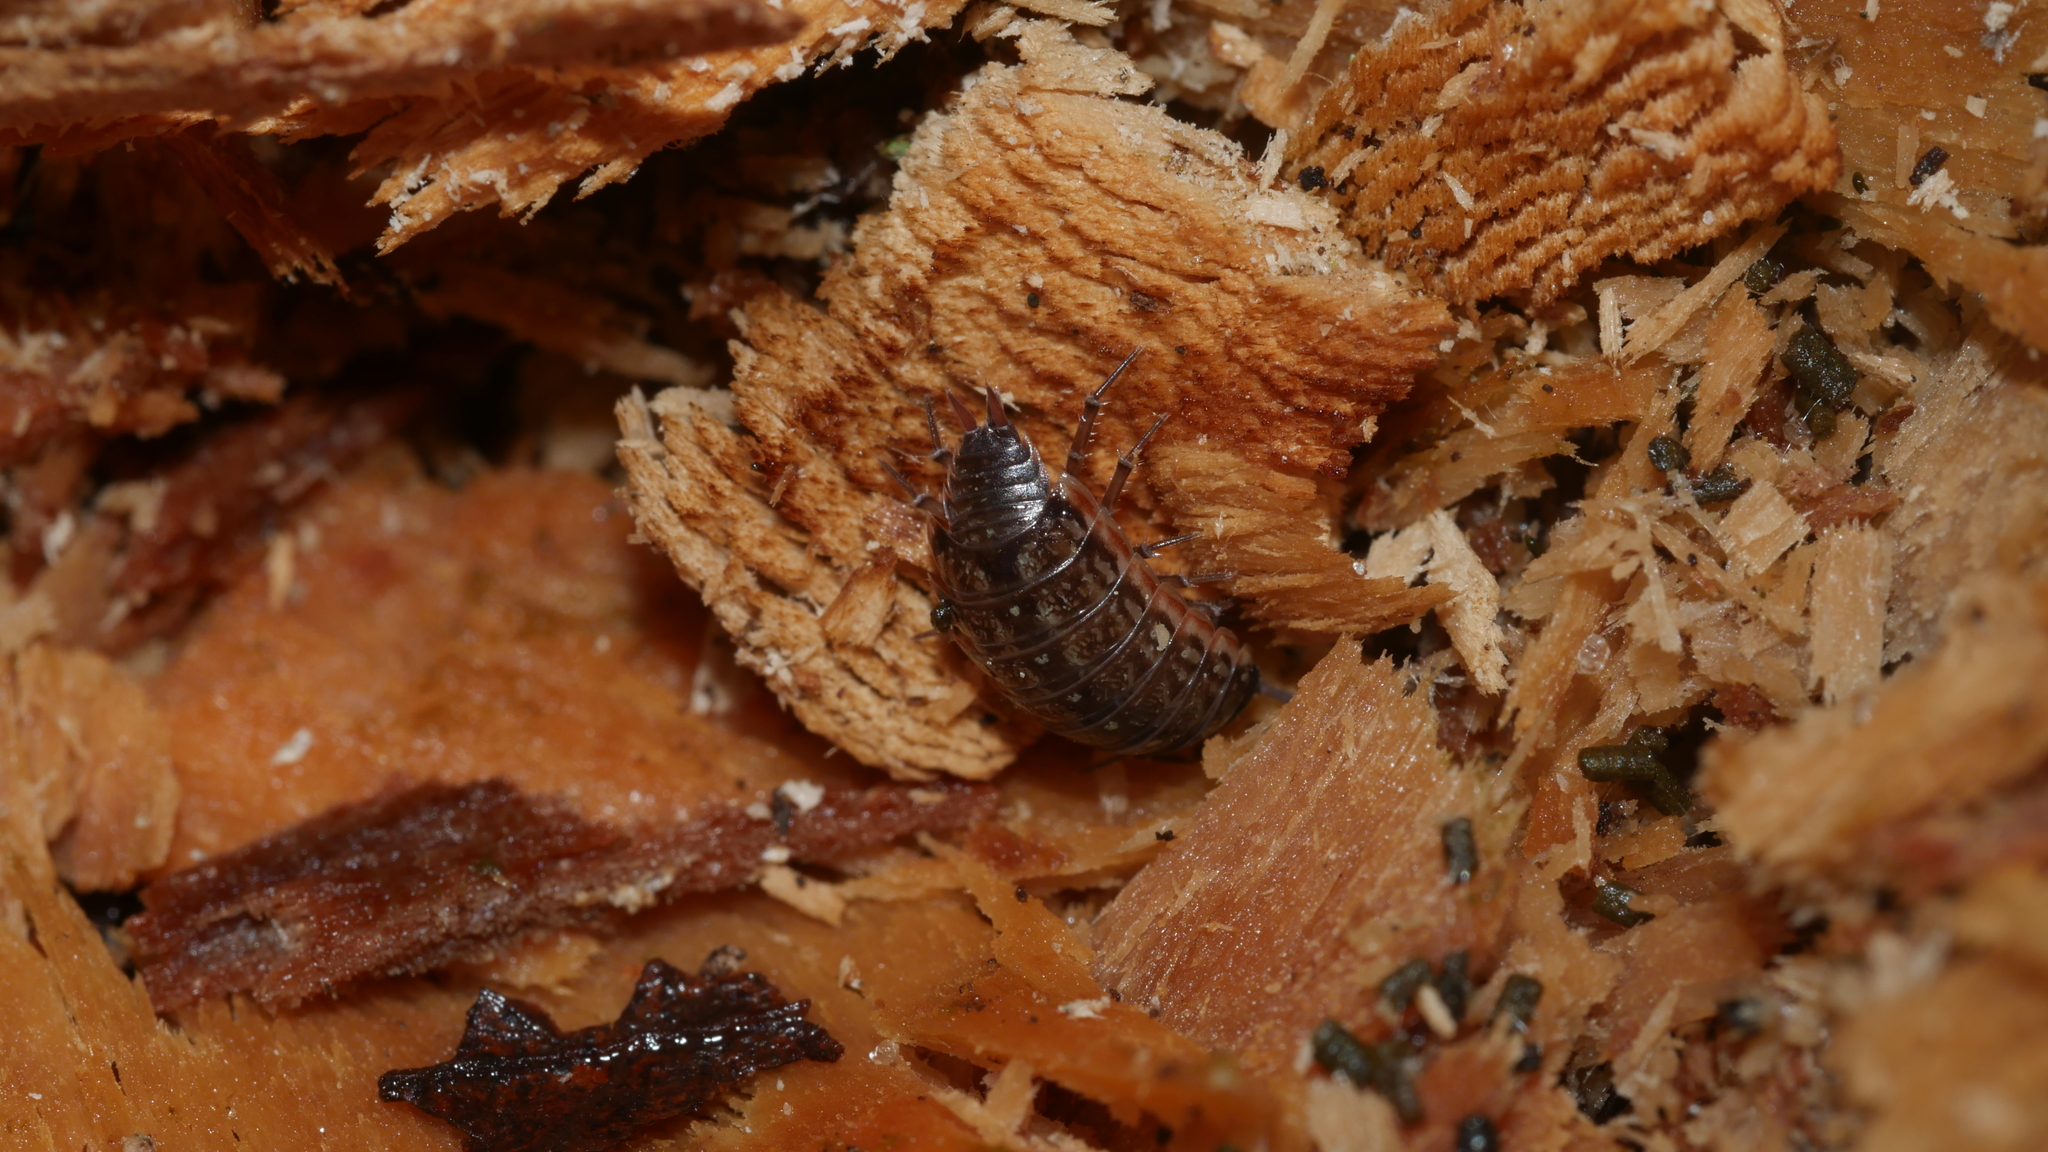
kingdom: Animalia
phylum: Arthropoda
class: Malacostraca
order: Isopoda
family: Philosciidae
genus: Philoscia
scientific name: Philoscia muscorum
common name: Common striped woodlouse
